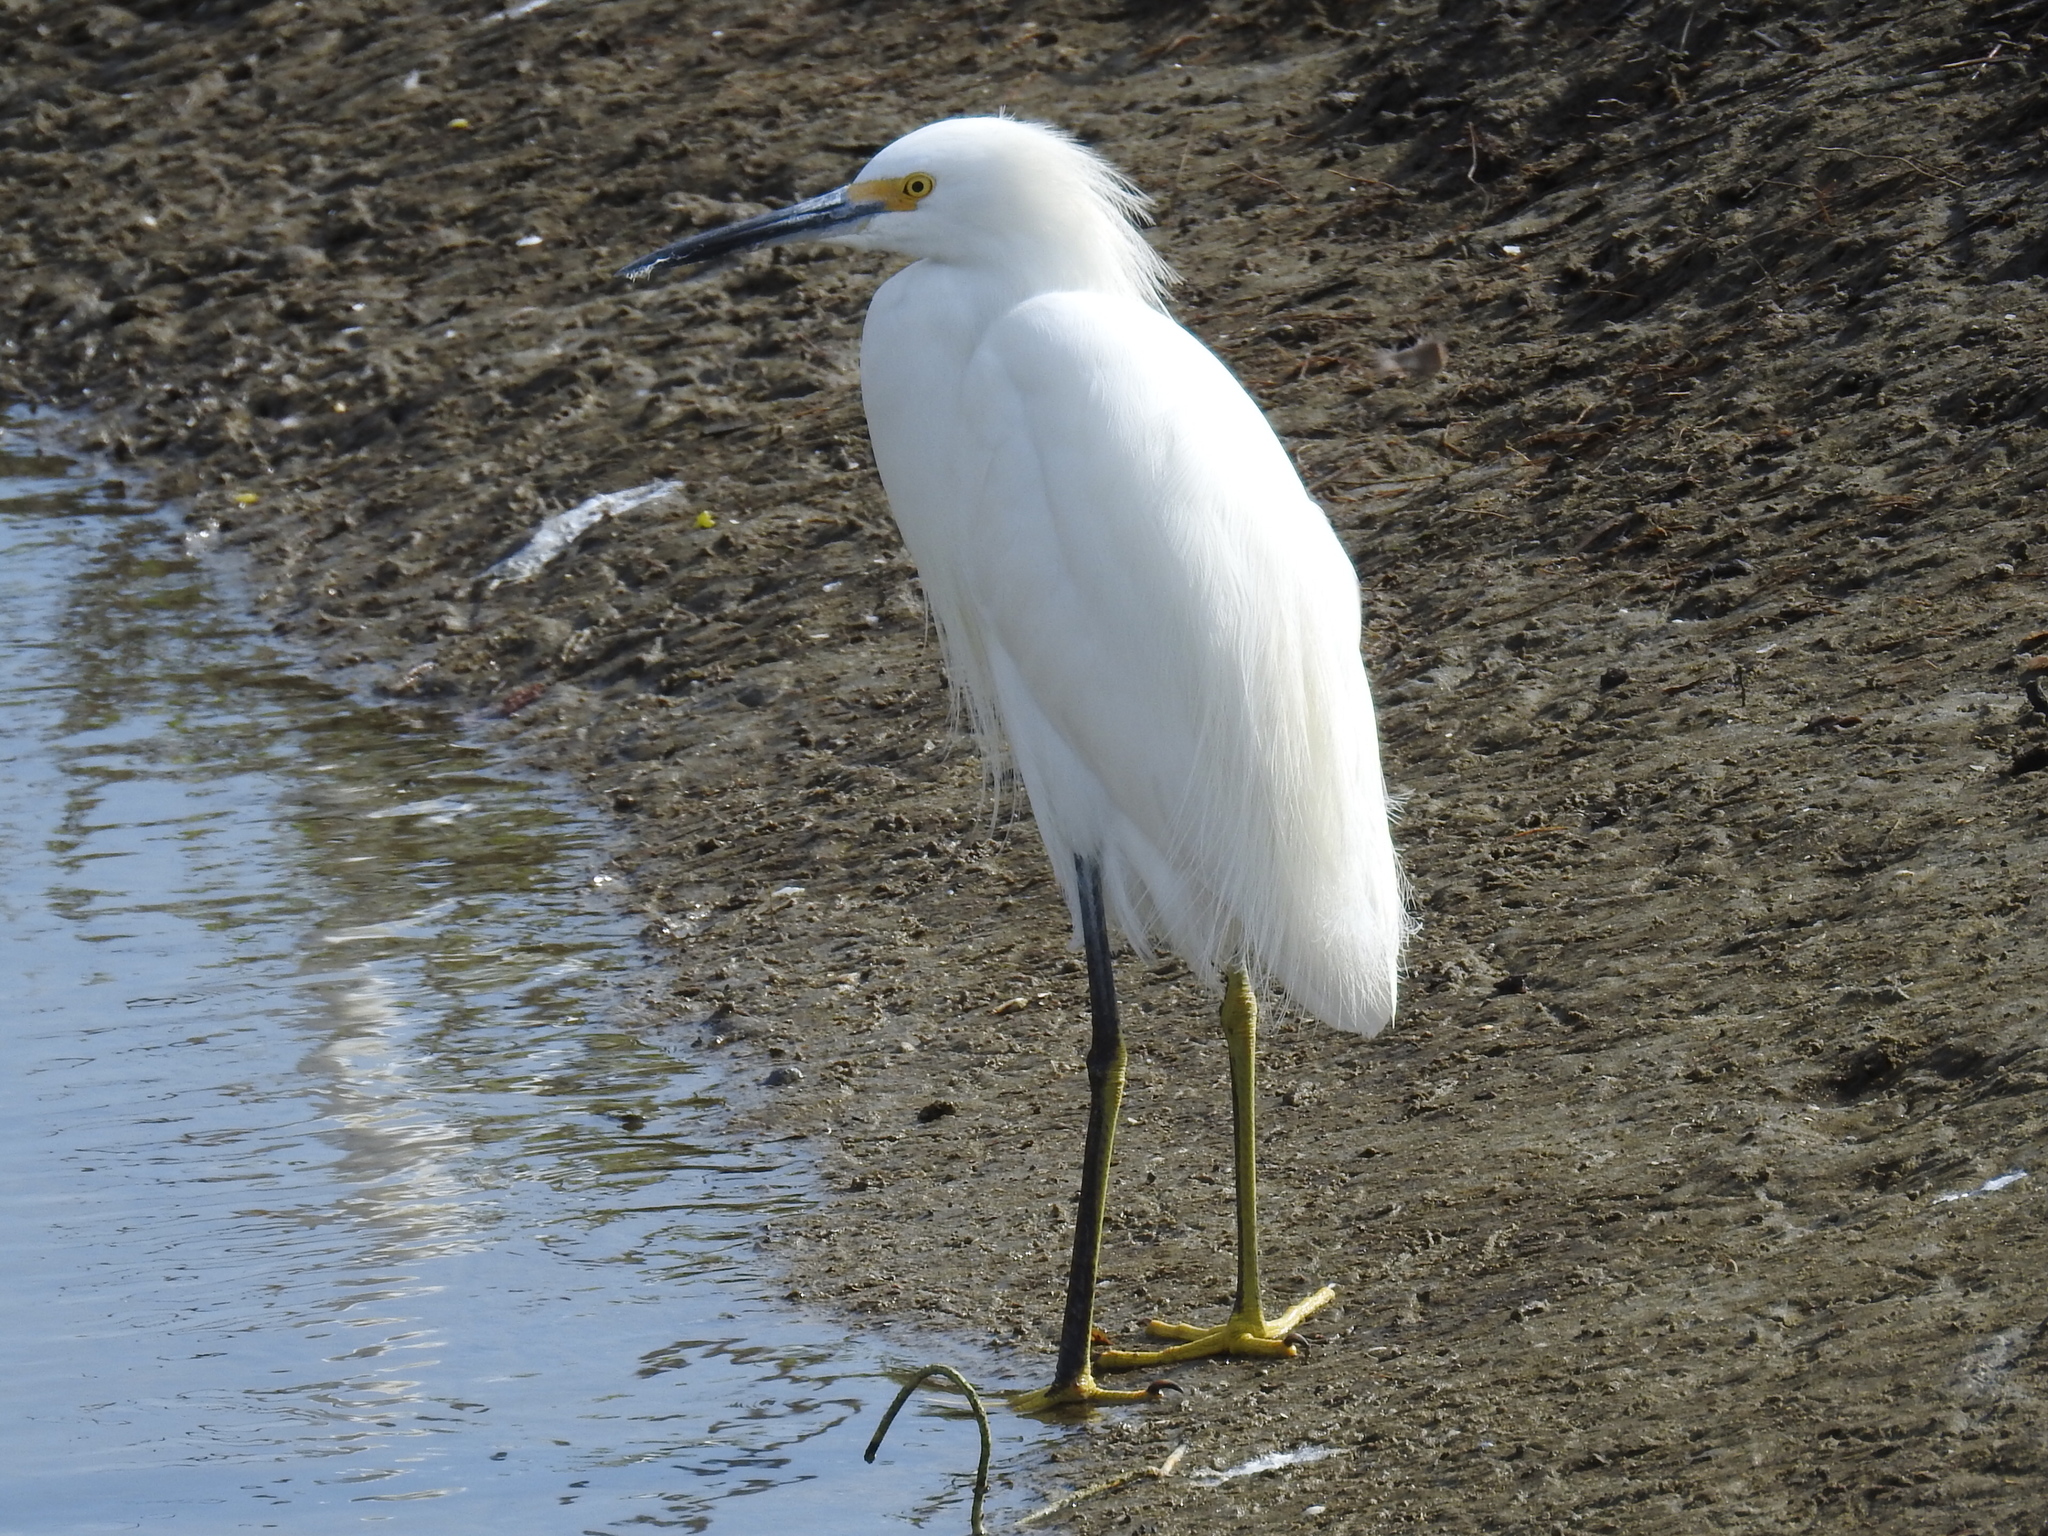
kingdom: Animalia
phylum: Chordata
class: Aves
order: Pelecaniformes
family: Ardeidae
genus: Egretta
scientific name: Egretta thula
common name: Snowy egret
